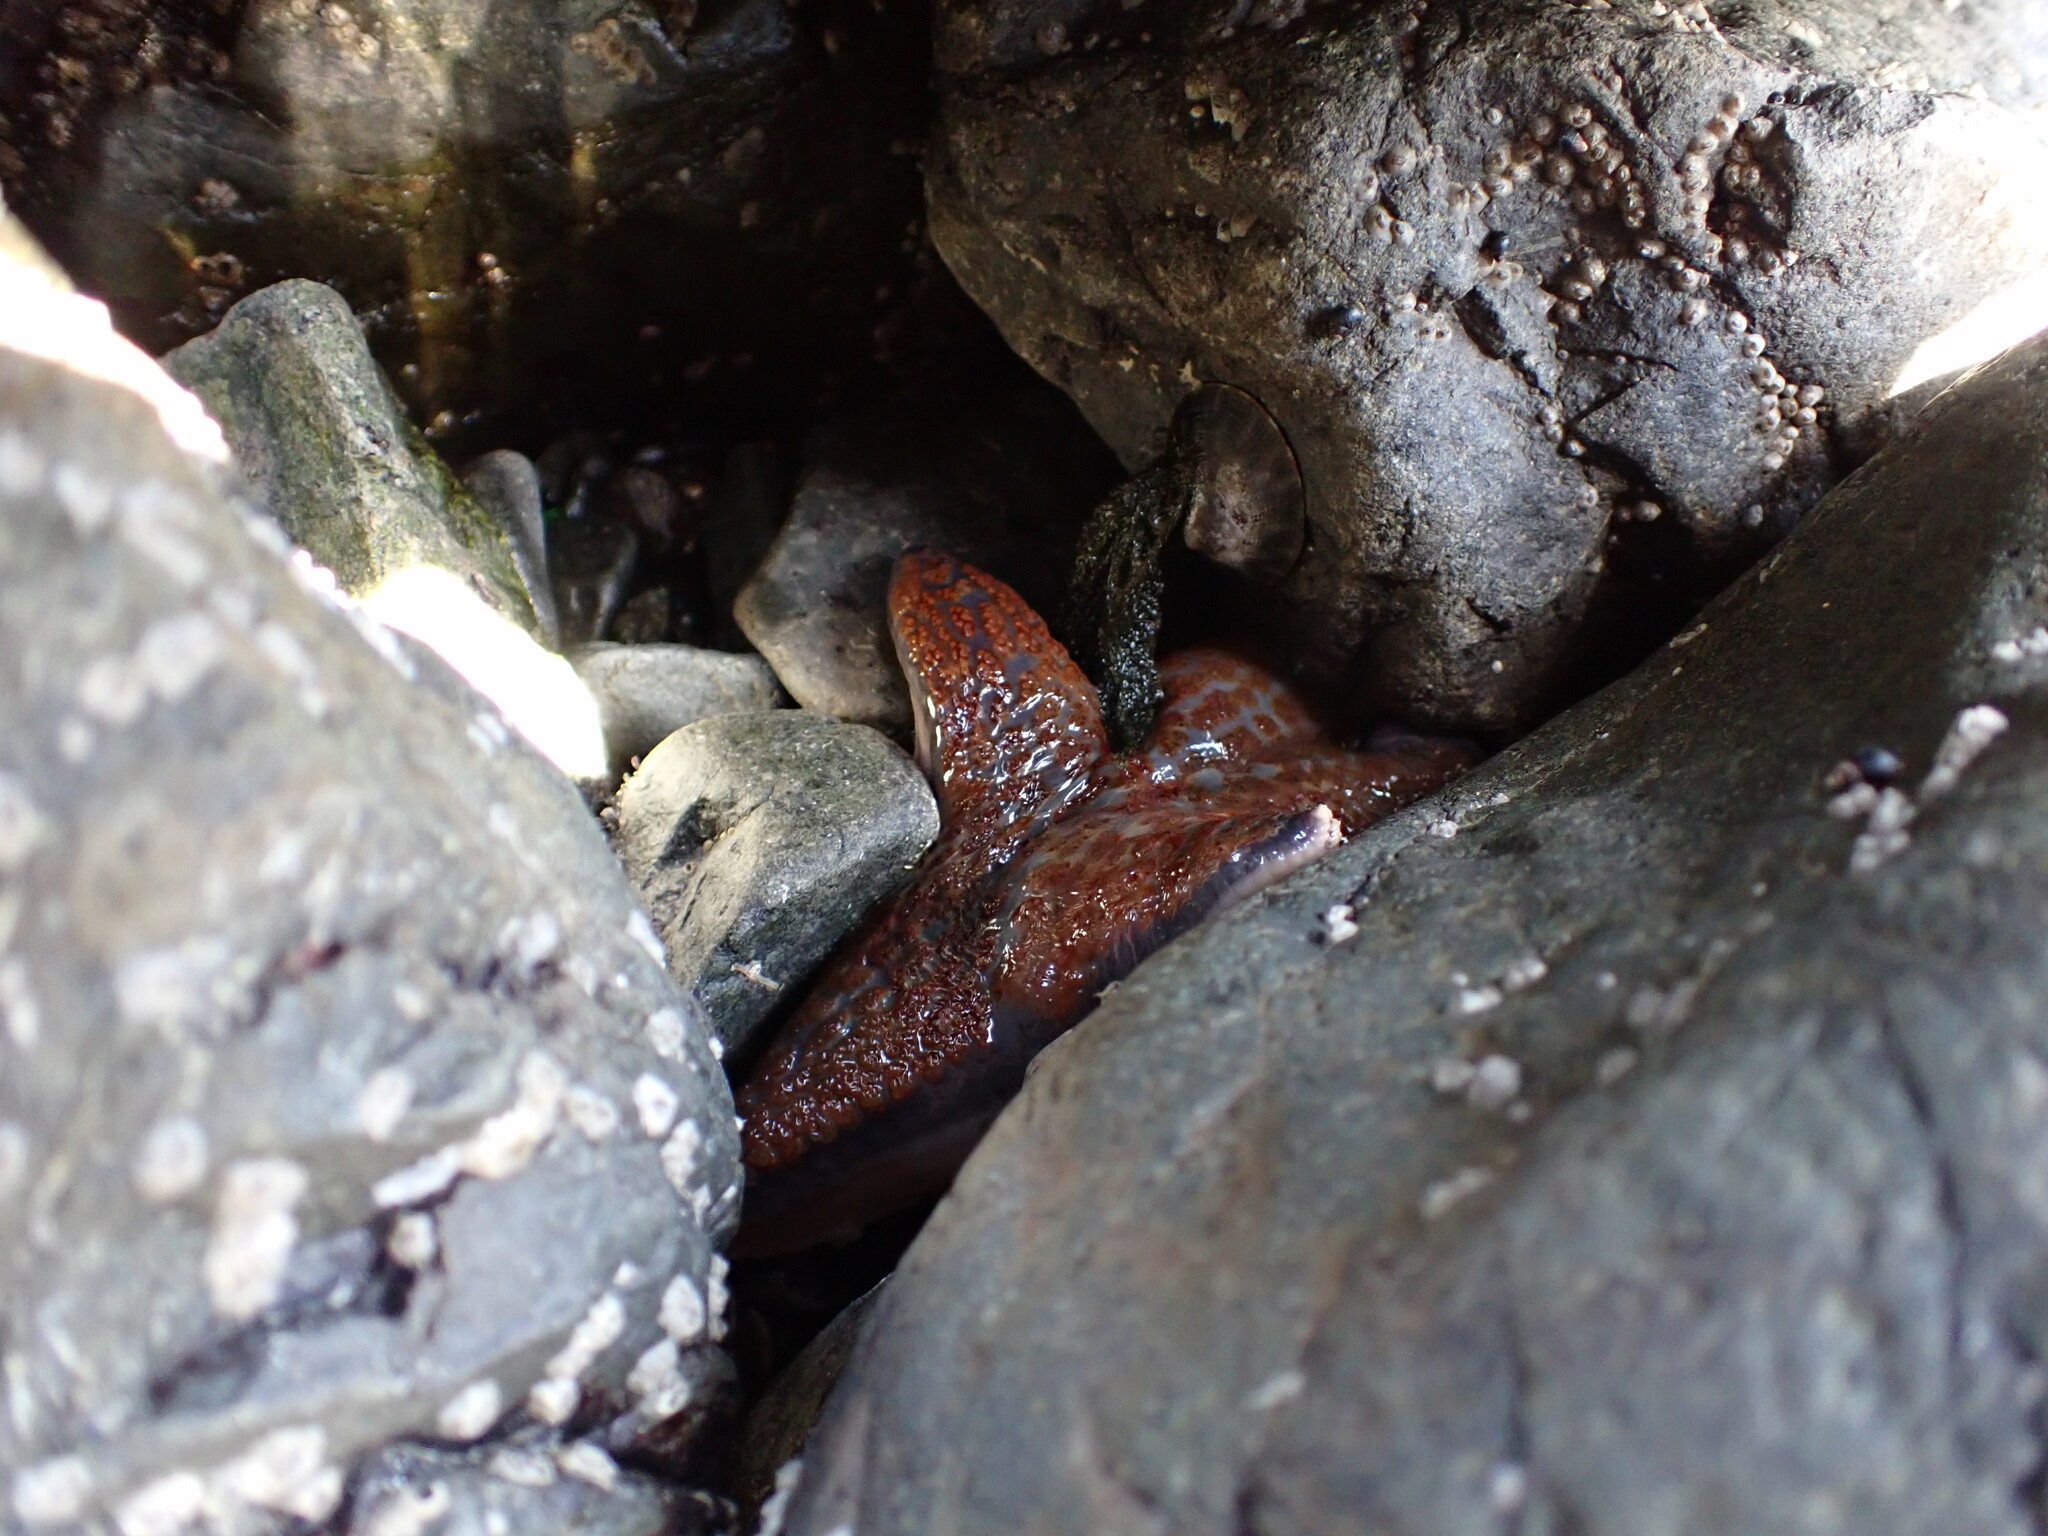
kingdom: Animalia
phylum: Echinodermata
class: Asteroidea
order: Valvatida
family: Asteropseidae
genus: Dermasterias
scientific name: Dermasterias imbricata
